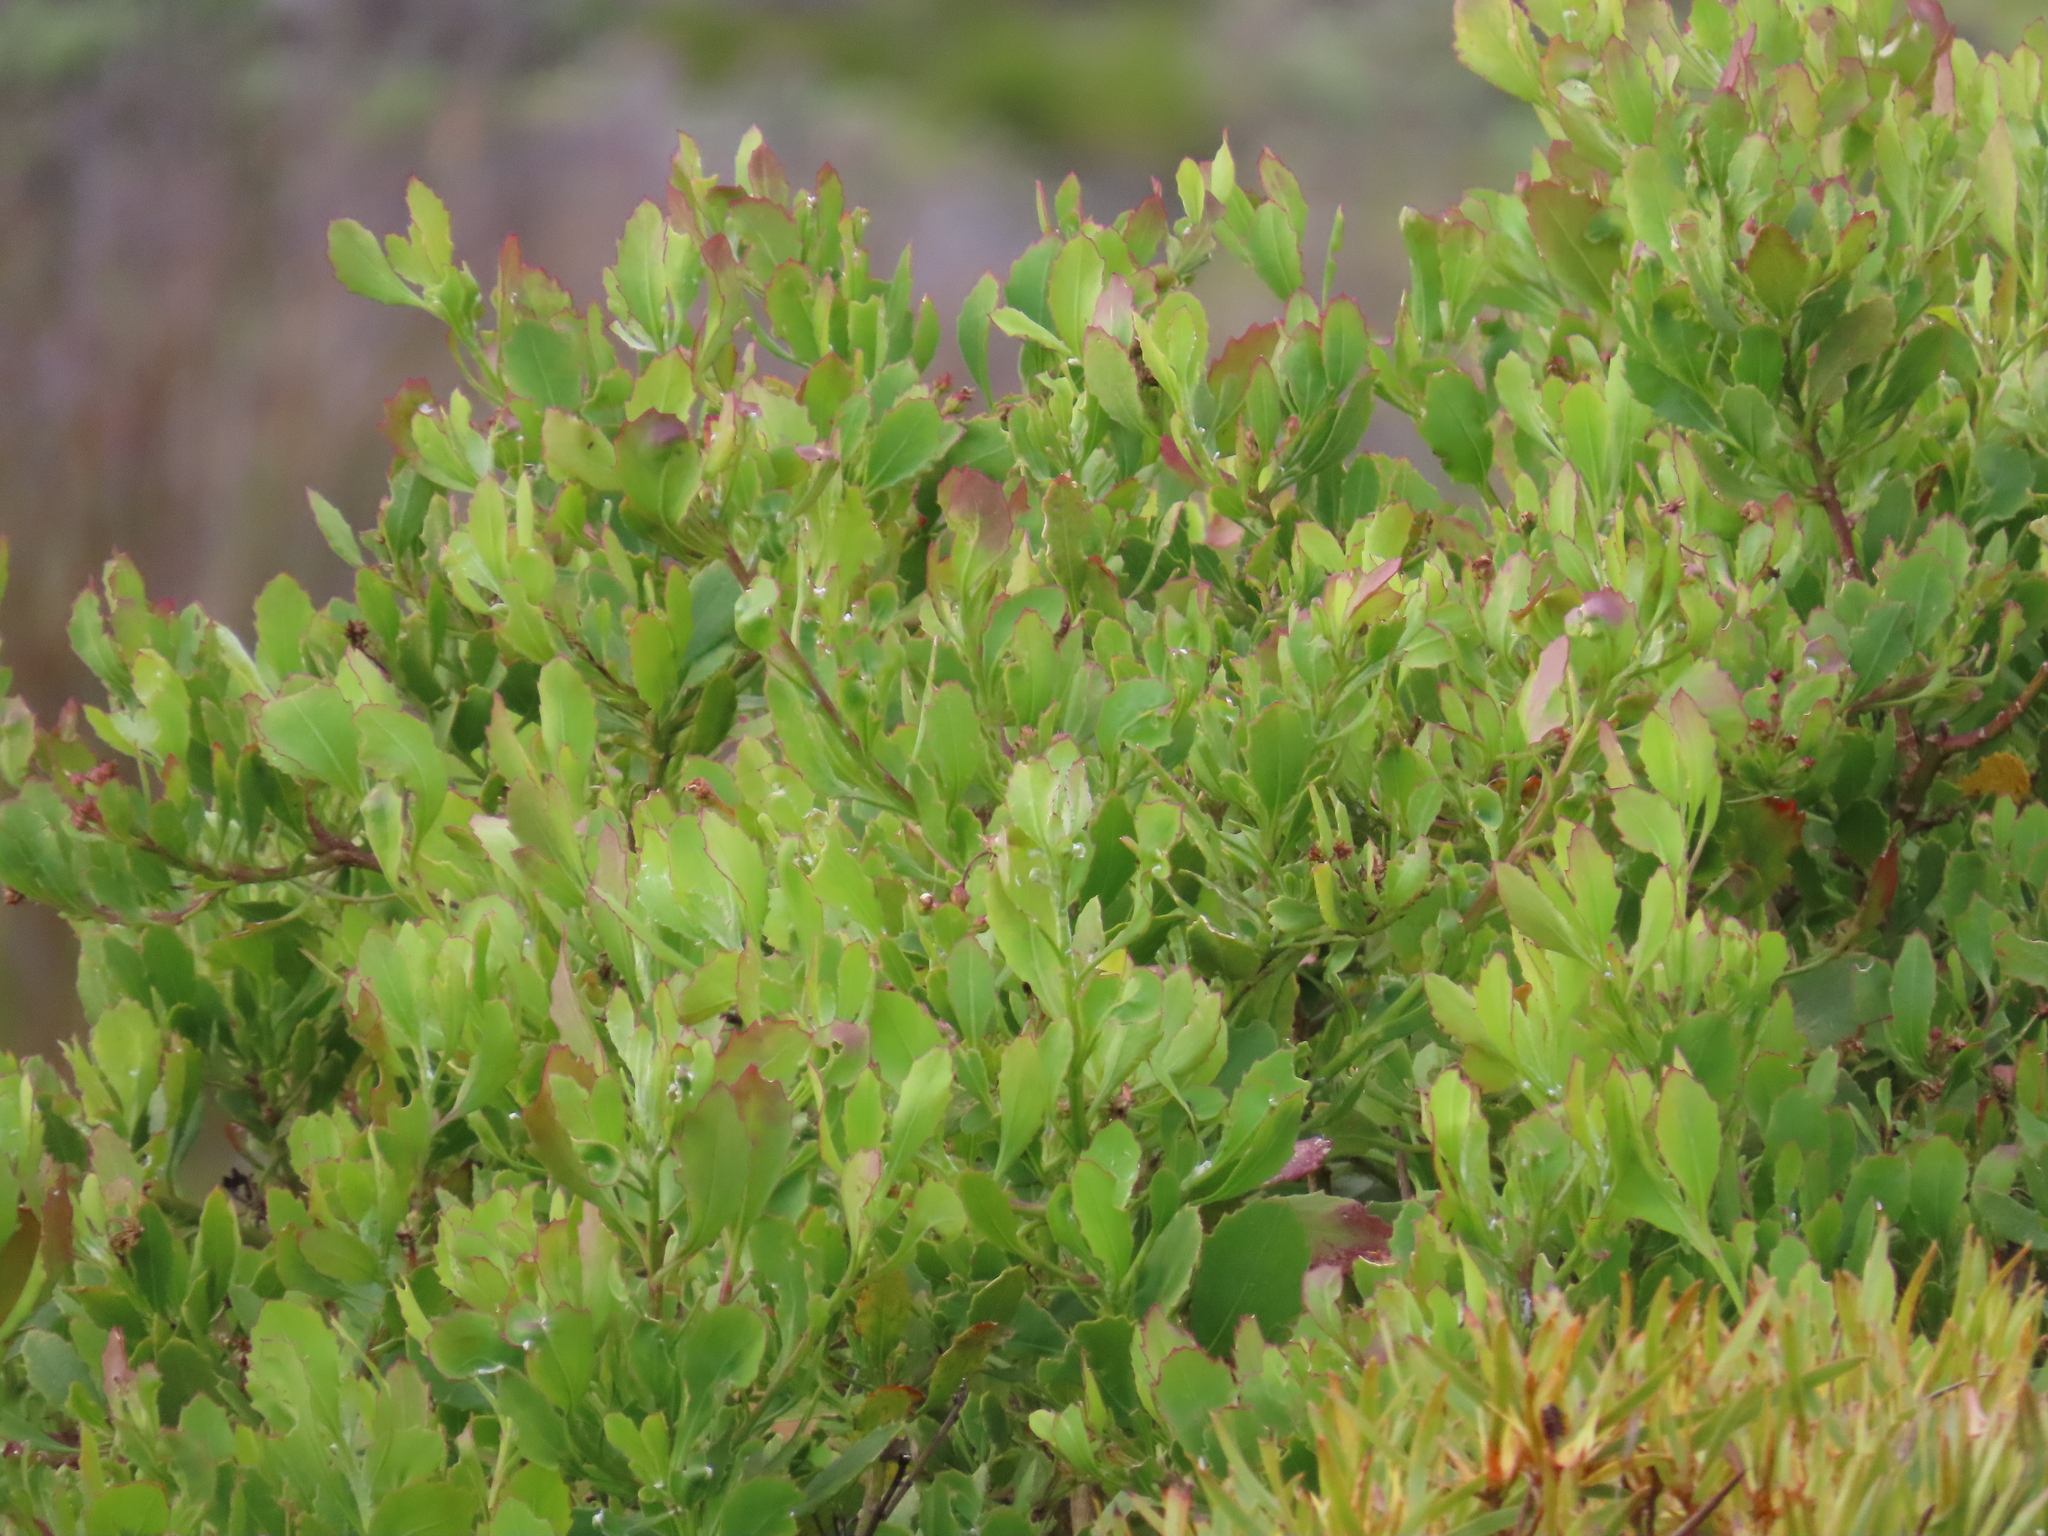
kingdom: Plantae
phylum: Tracheophyta
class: Magnoliopsida
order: Asterales
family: Asteraceae
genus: Osteospermum
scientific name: Osteospermum moniliferum
